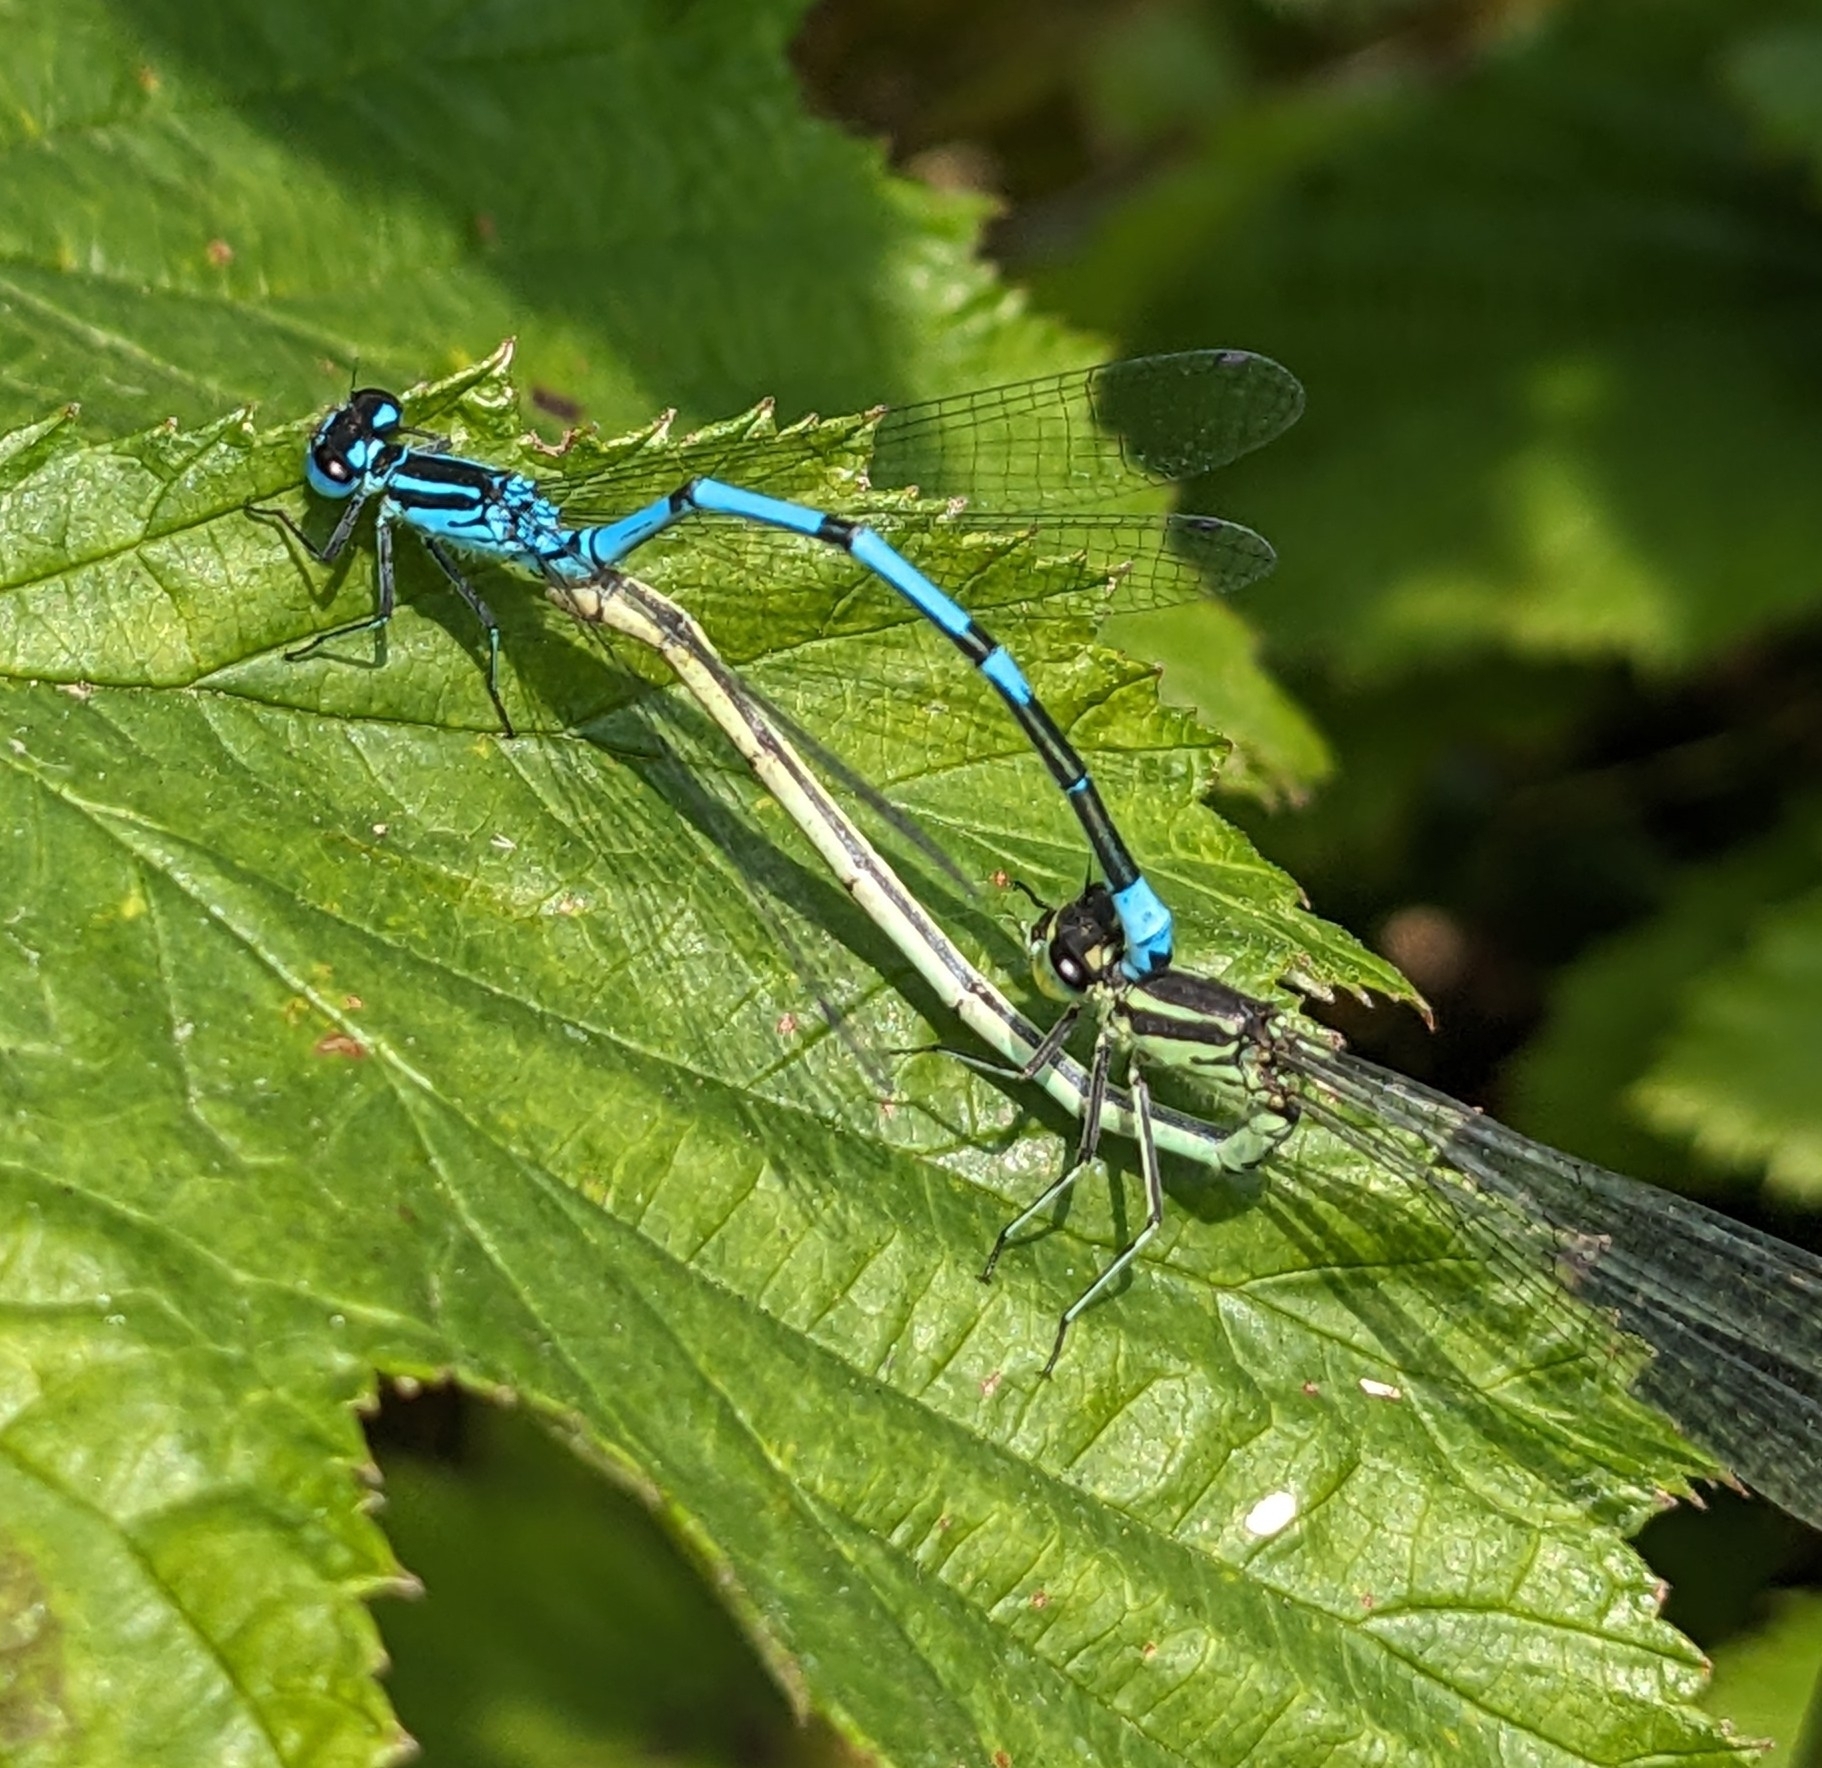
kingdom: Animalia
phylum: Arthropoda
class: Insecta
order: Odonata
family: Coenagrionidae
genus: Coenagrion
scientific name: Coenagrion puella
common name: Azure damselfly
